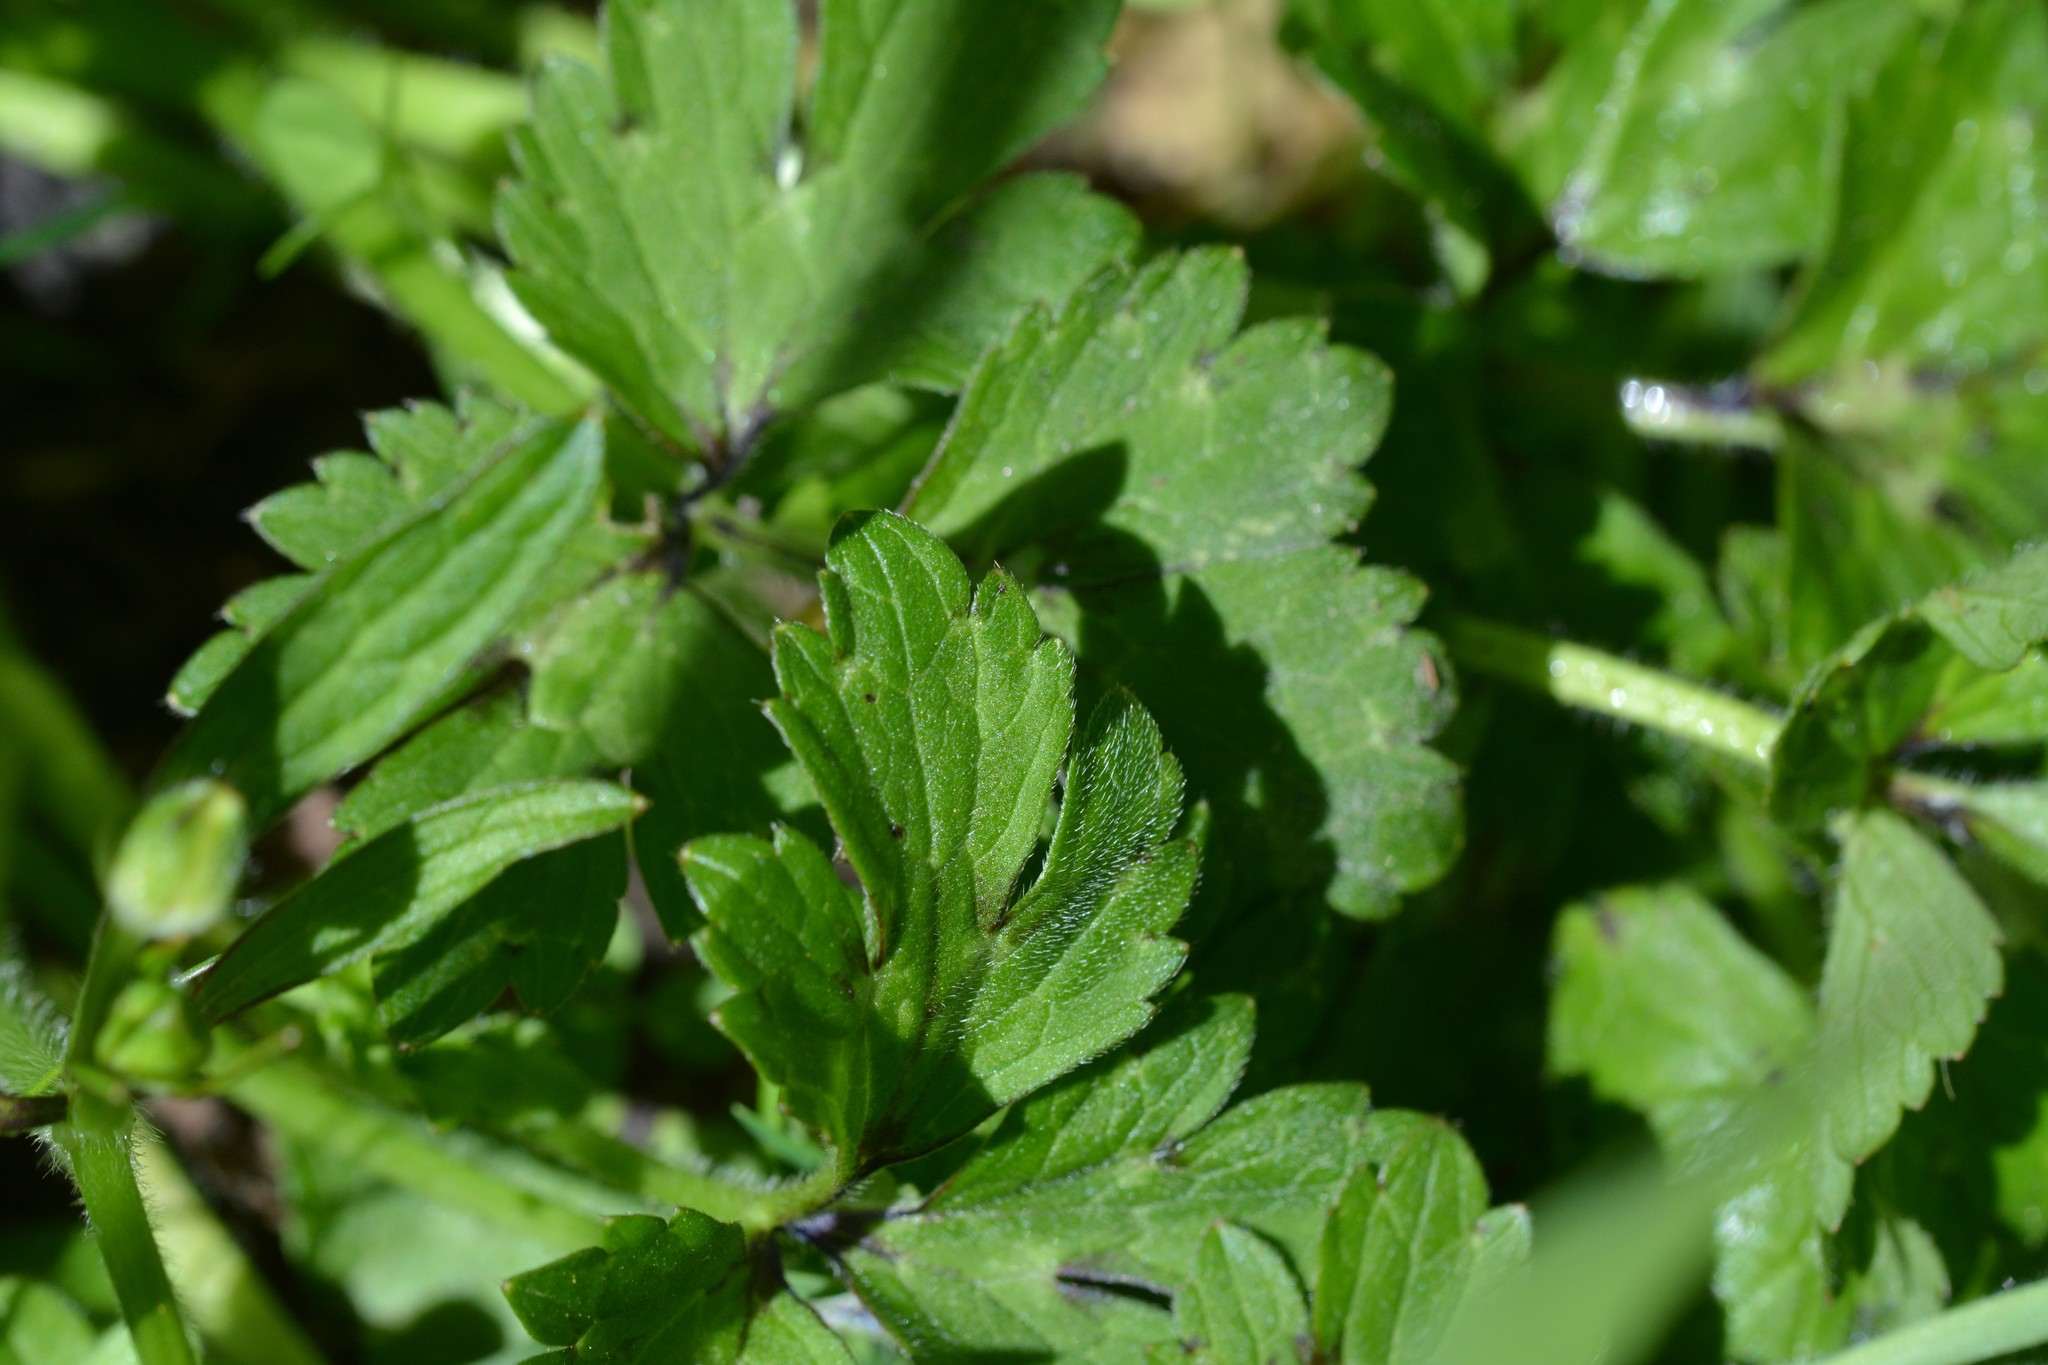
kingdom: Plantae
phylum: Tracheophyta
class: Magnoliopsida
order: Ranunculales
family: Ranunculaceae
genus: Ranunculus
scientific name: Ranunculus repens
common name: Creeping buttercup
